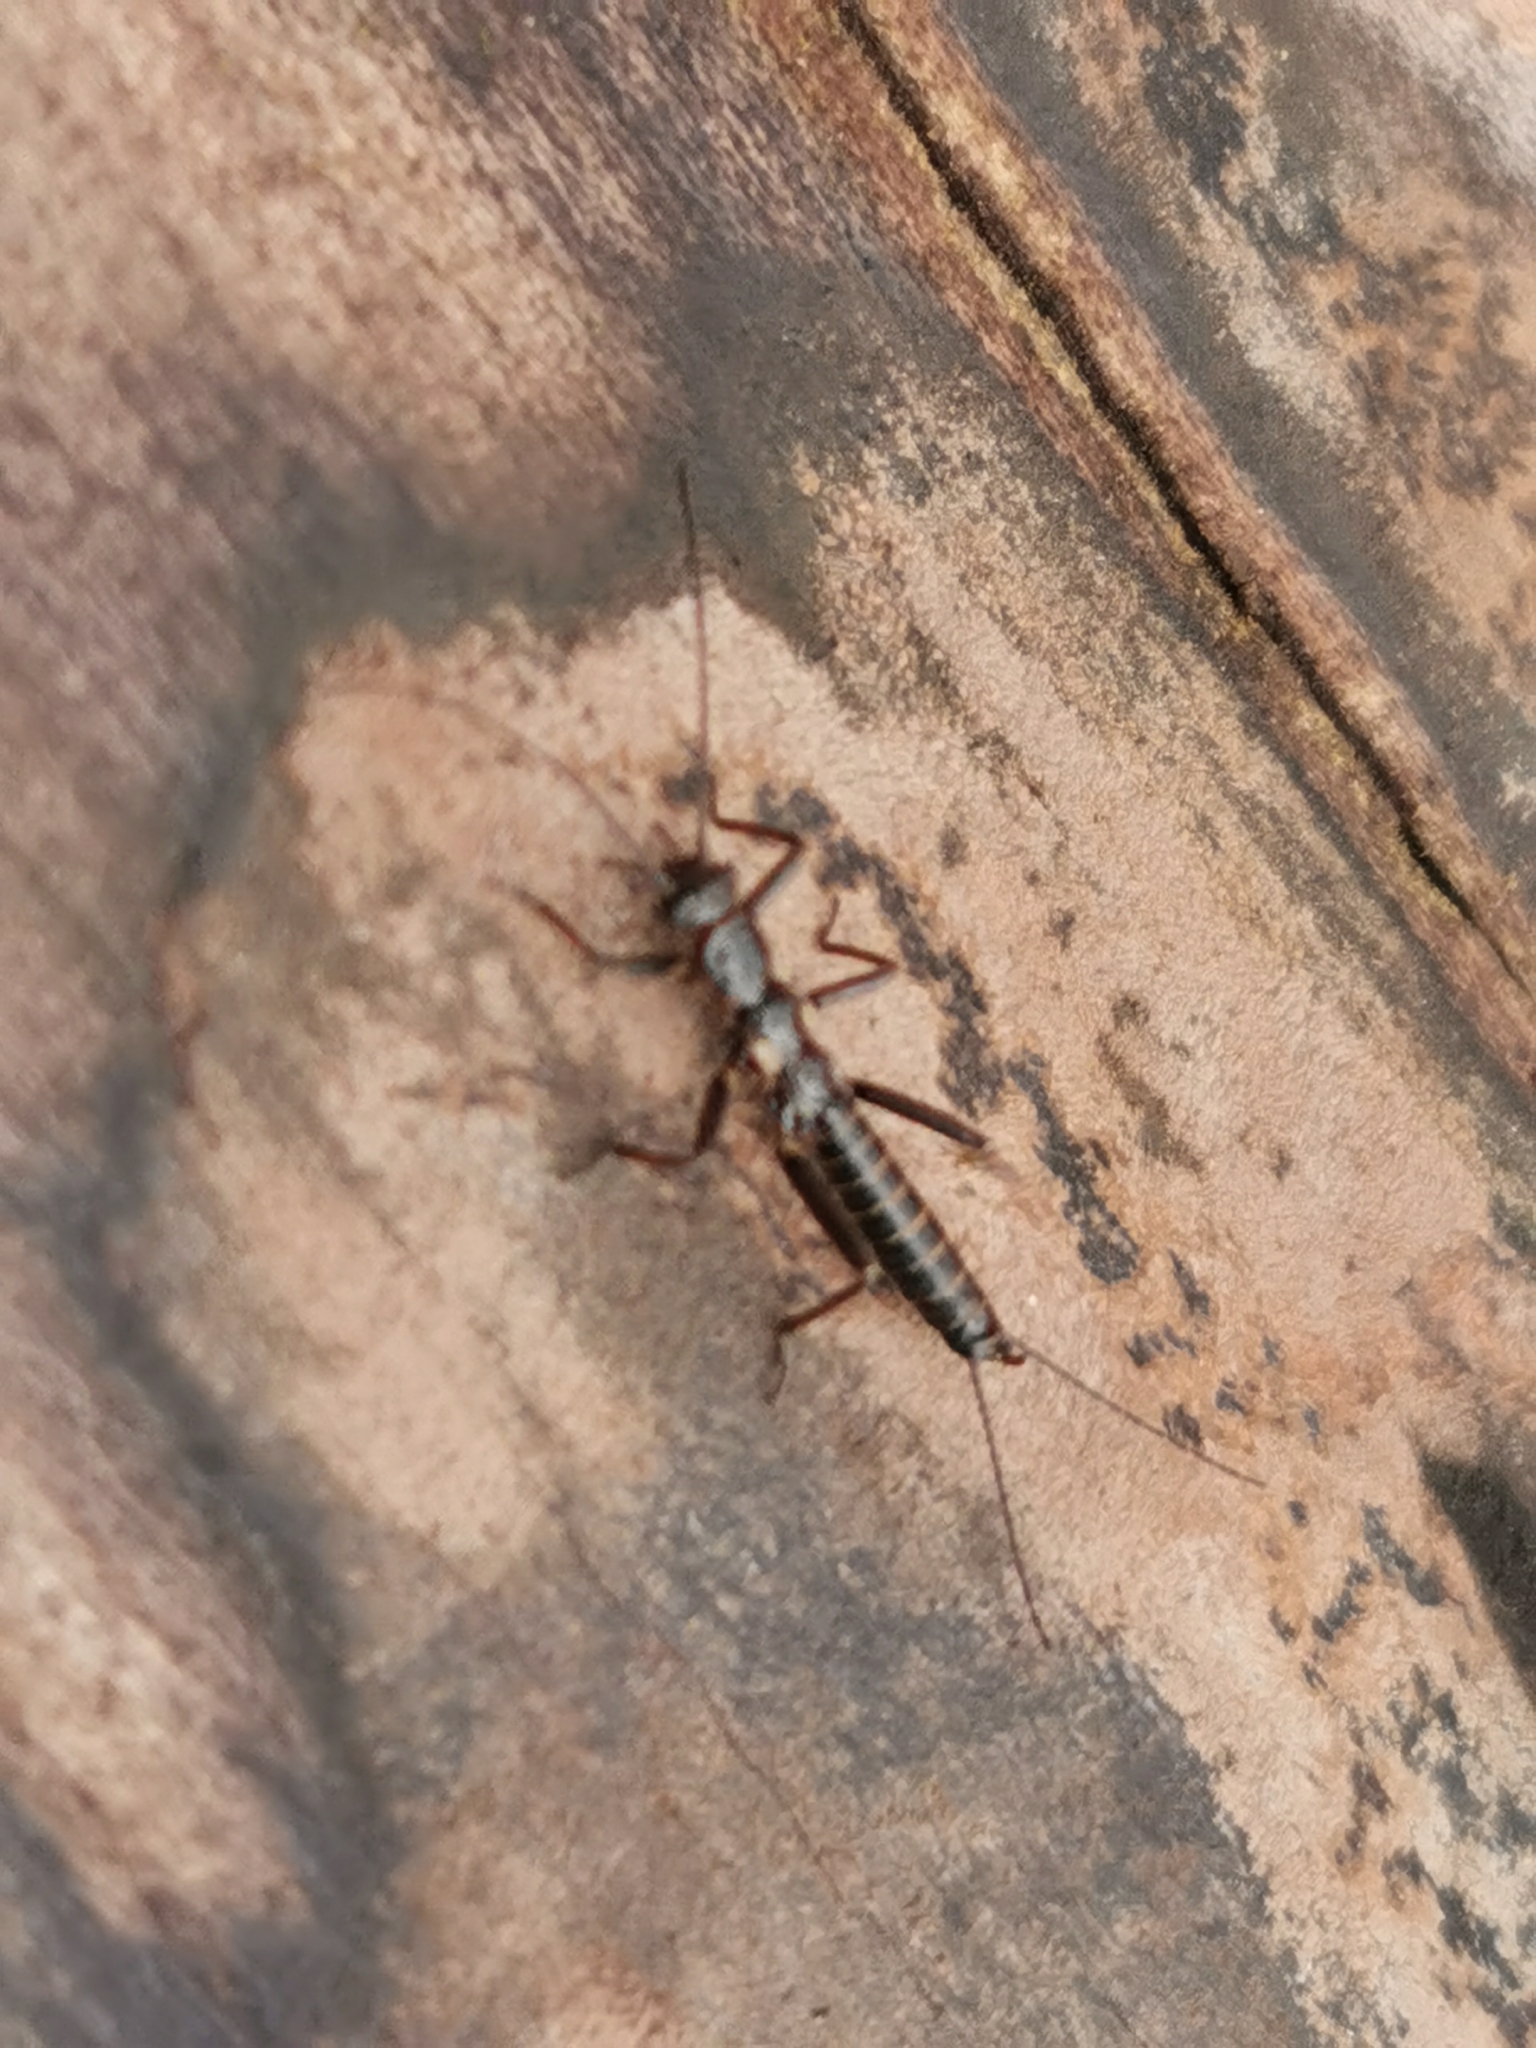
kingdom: Animalia
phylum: Arthropoda
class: Insecta
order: Plecoptera
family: Capniidae
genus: Zwicknia
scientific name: Zwicknia bifrons
